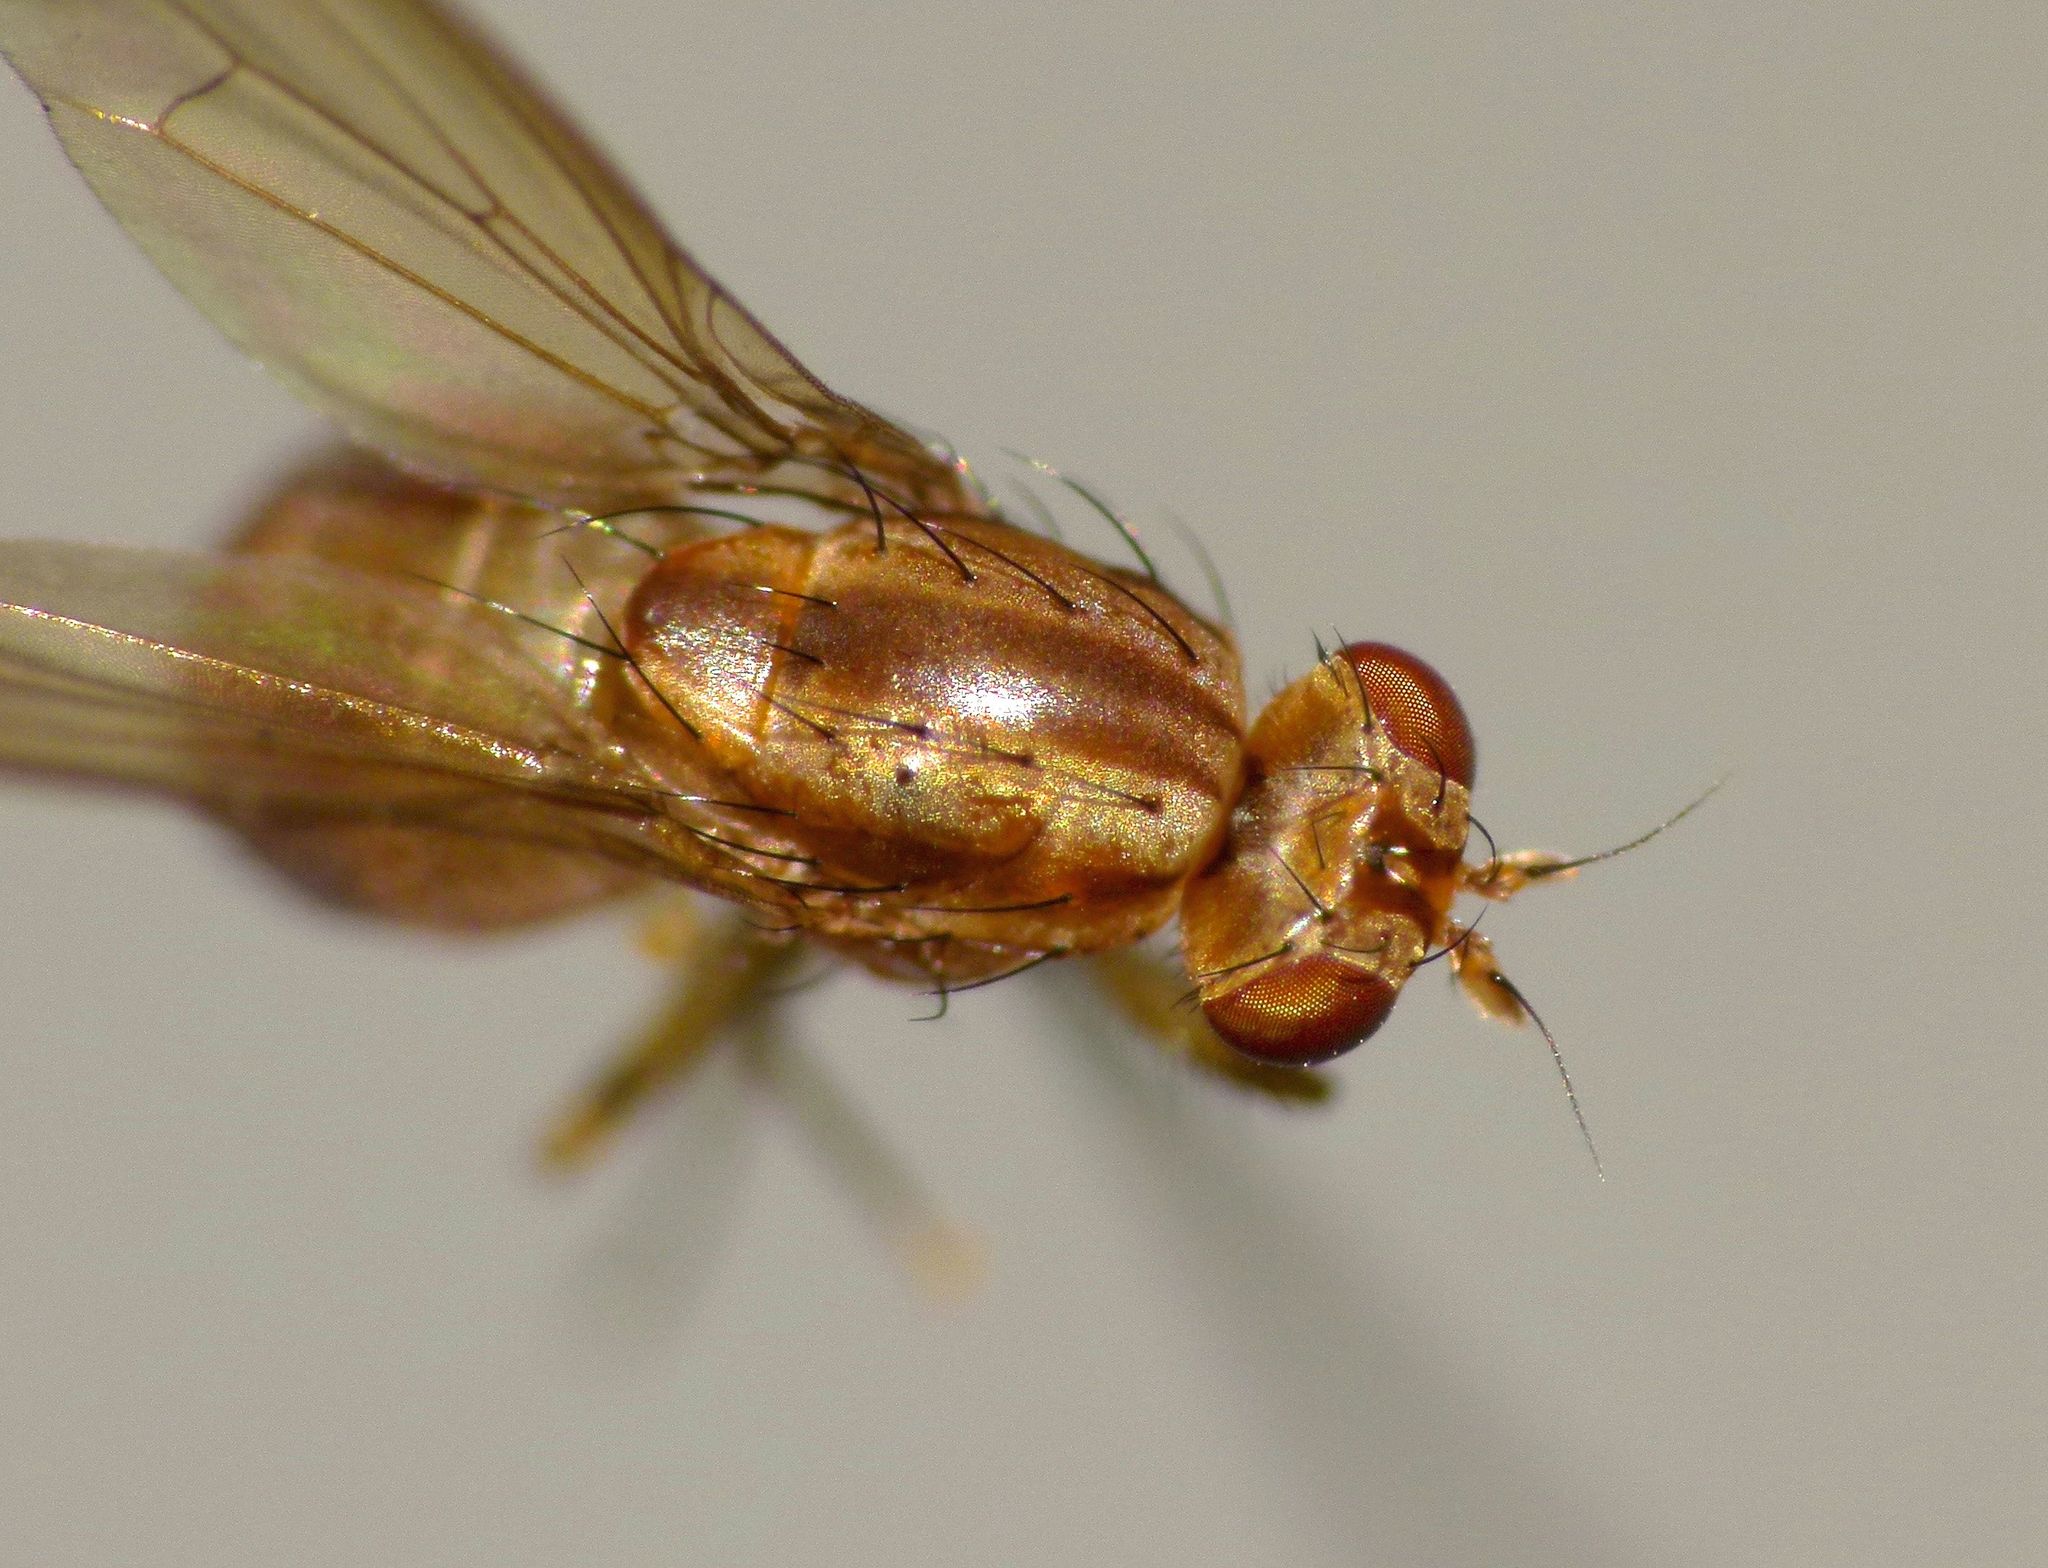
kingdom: Animalia
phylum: Arthropoda
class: Insecta
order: Diptera
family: Lauxaniidae
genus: Poecilohetaerus
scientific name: Poecilohetaerus punctatifacies
